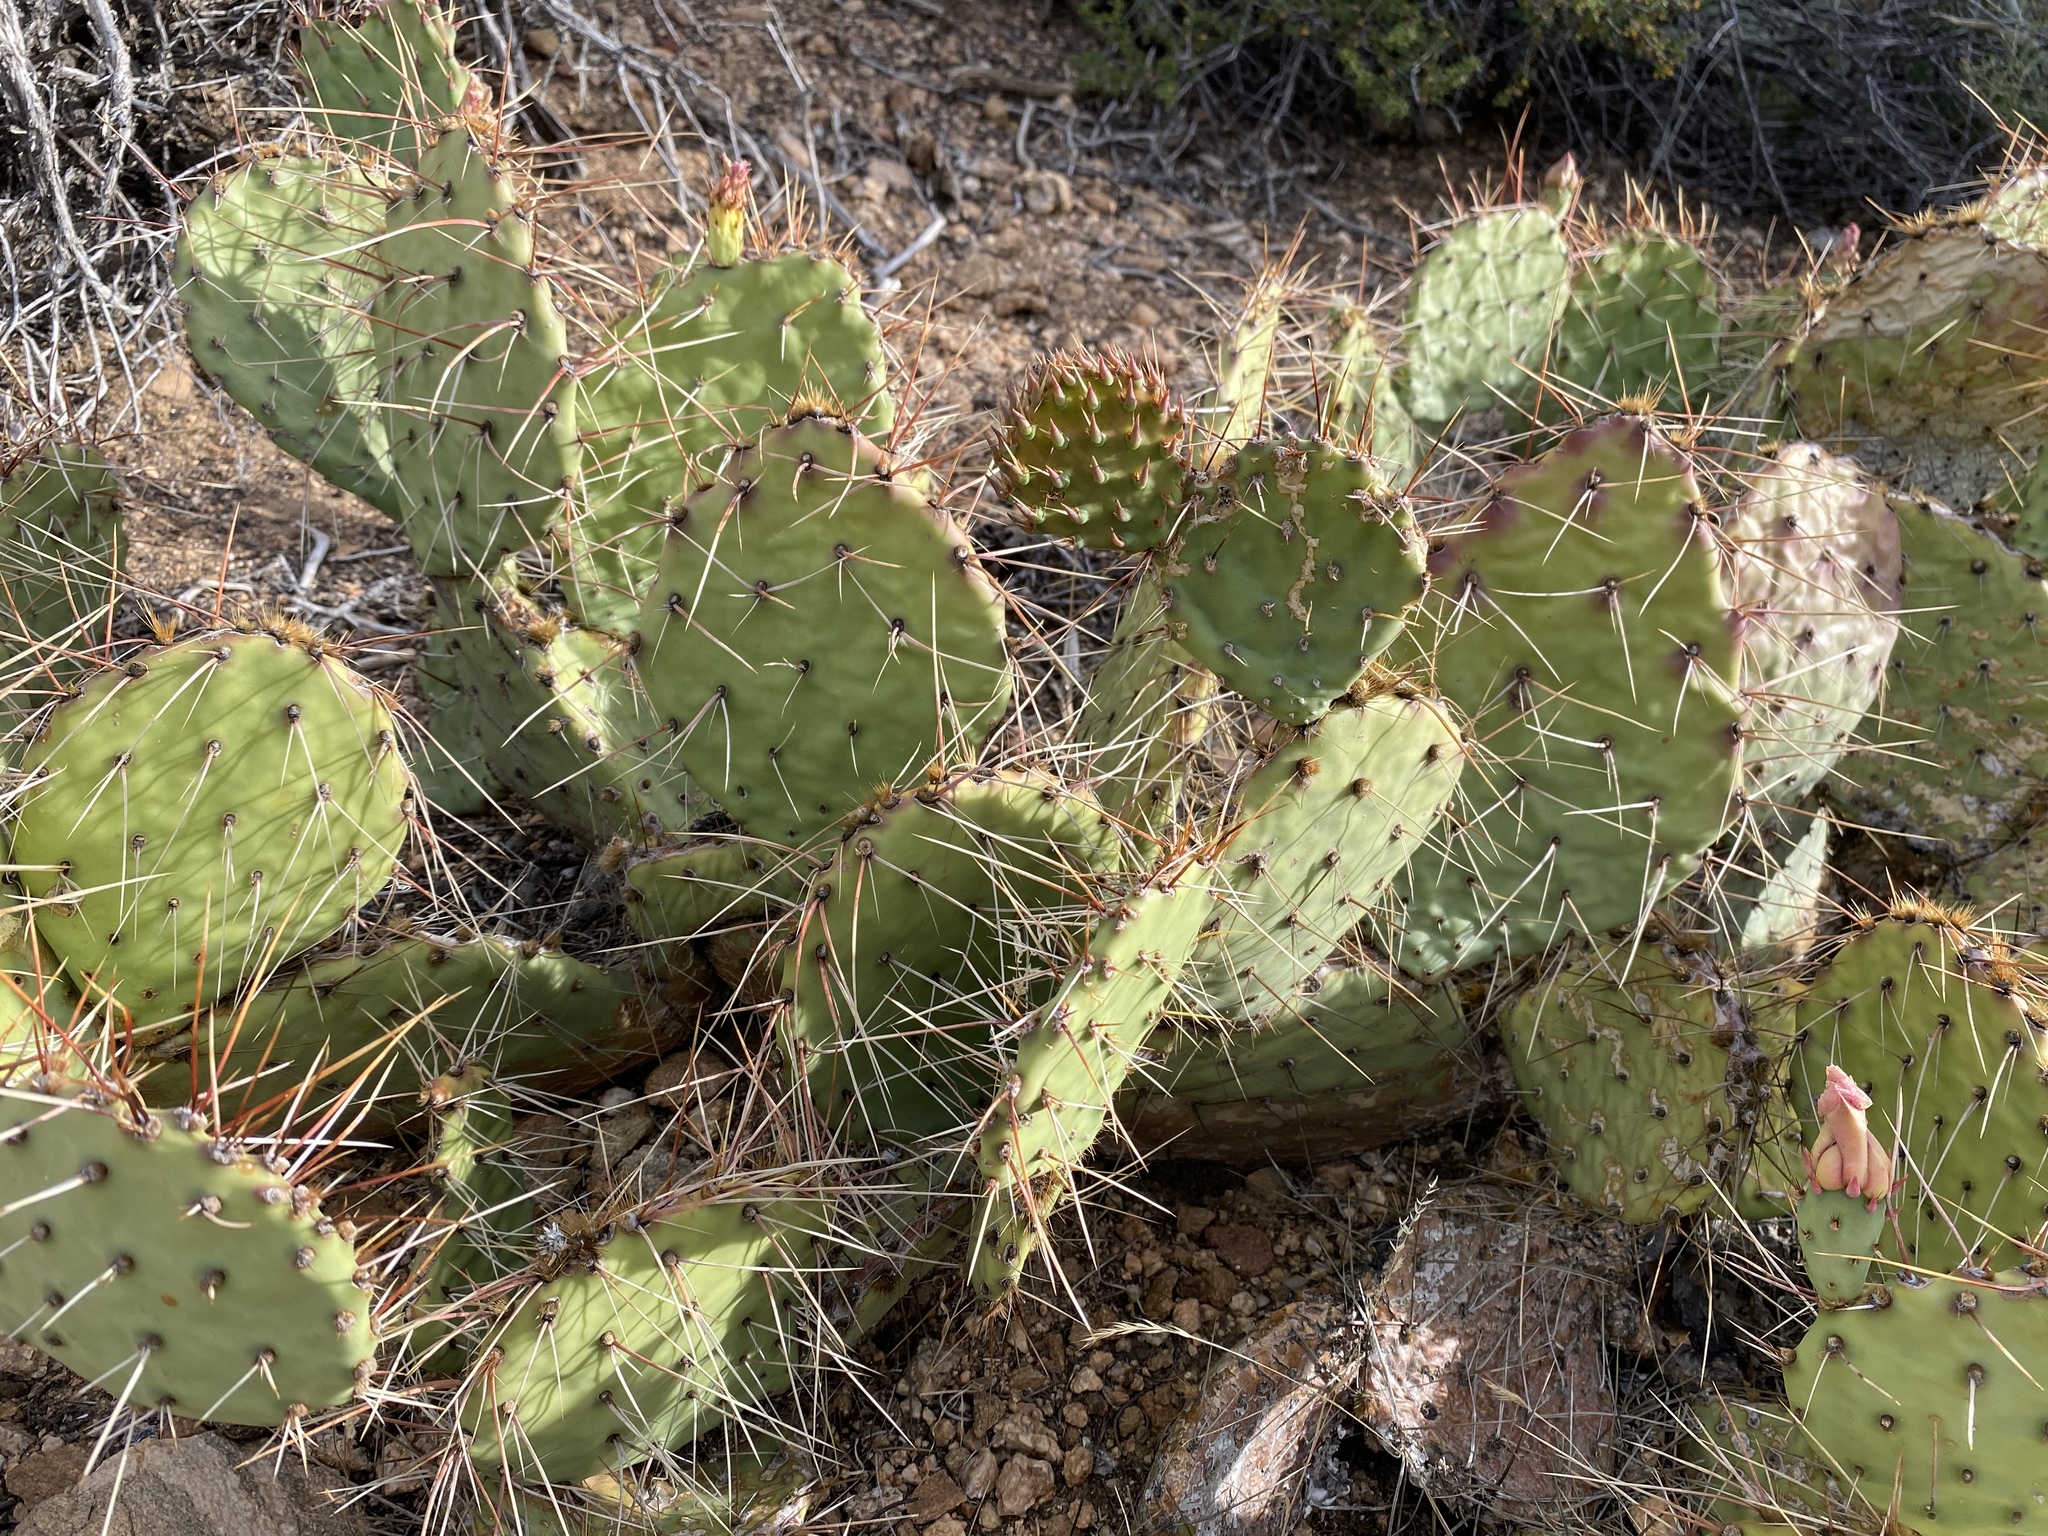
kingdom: Plantae
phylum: Tracheophyta
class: Magnoliopsida
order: Caryophyllales
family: Cactaceae
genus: Opuntia
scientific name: Opuntia phaeacantha
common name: New mexico prickly-pear
